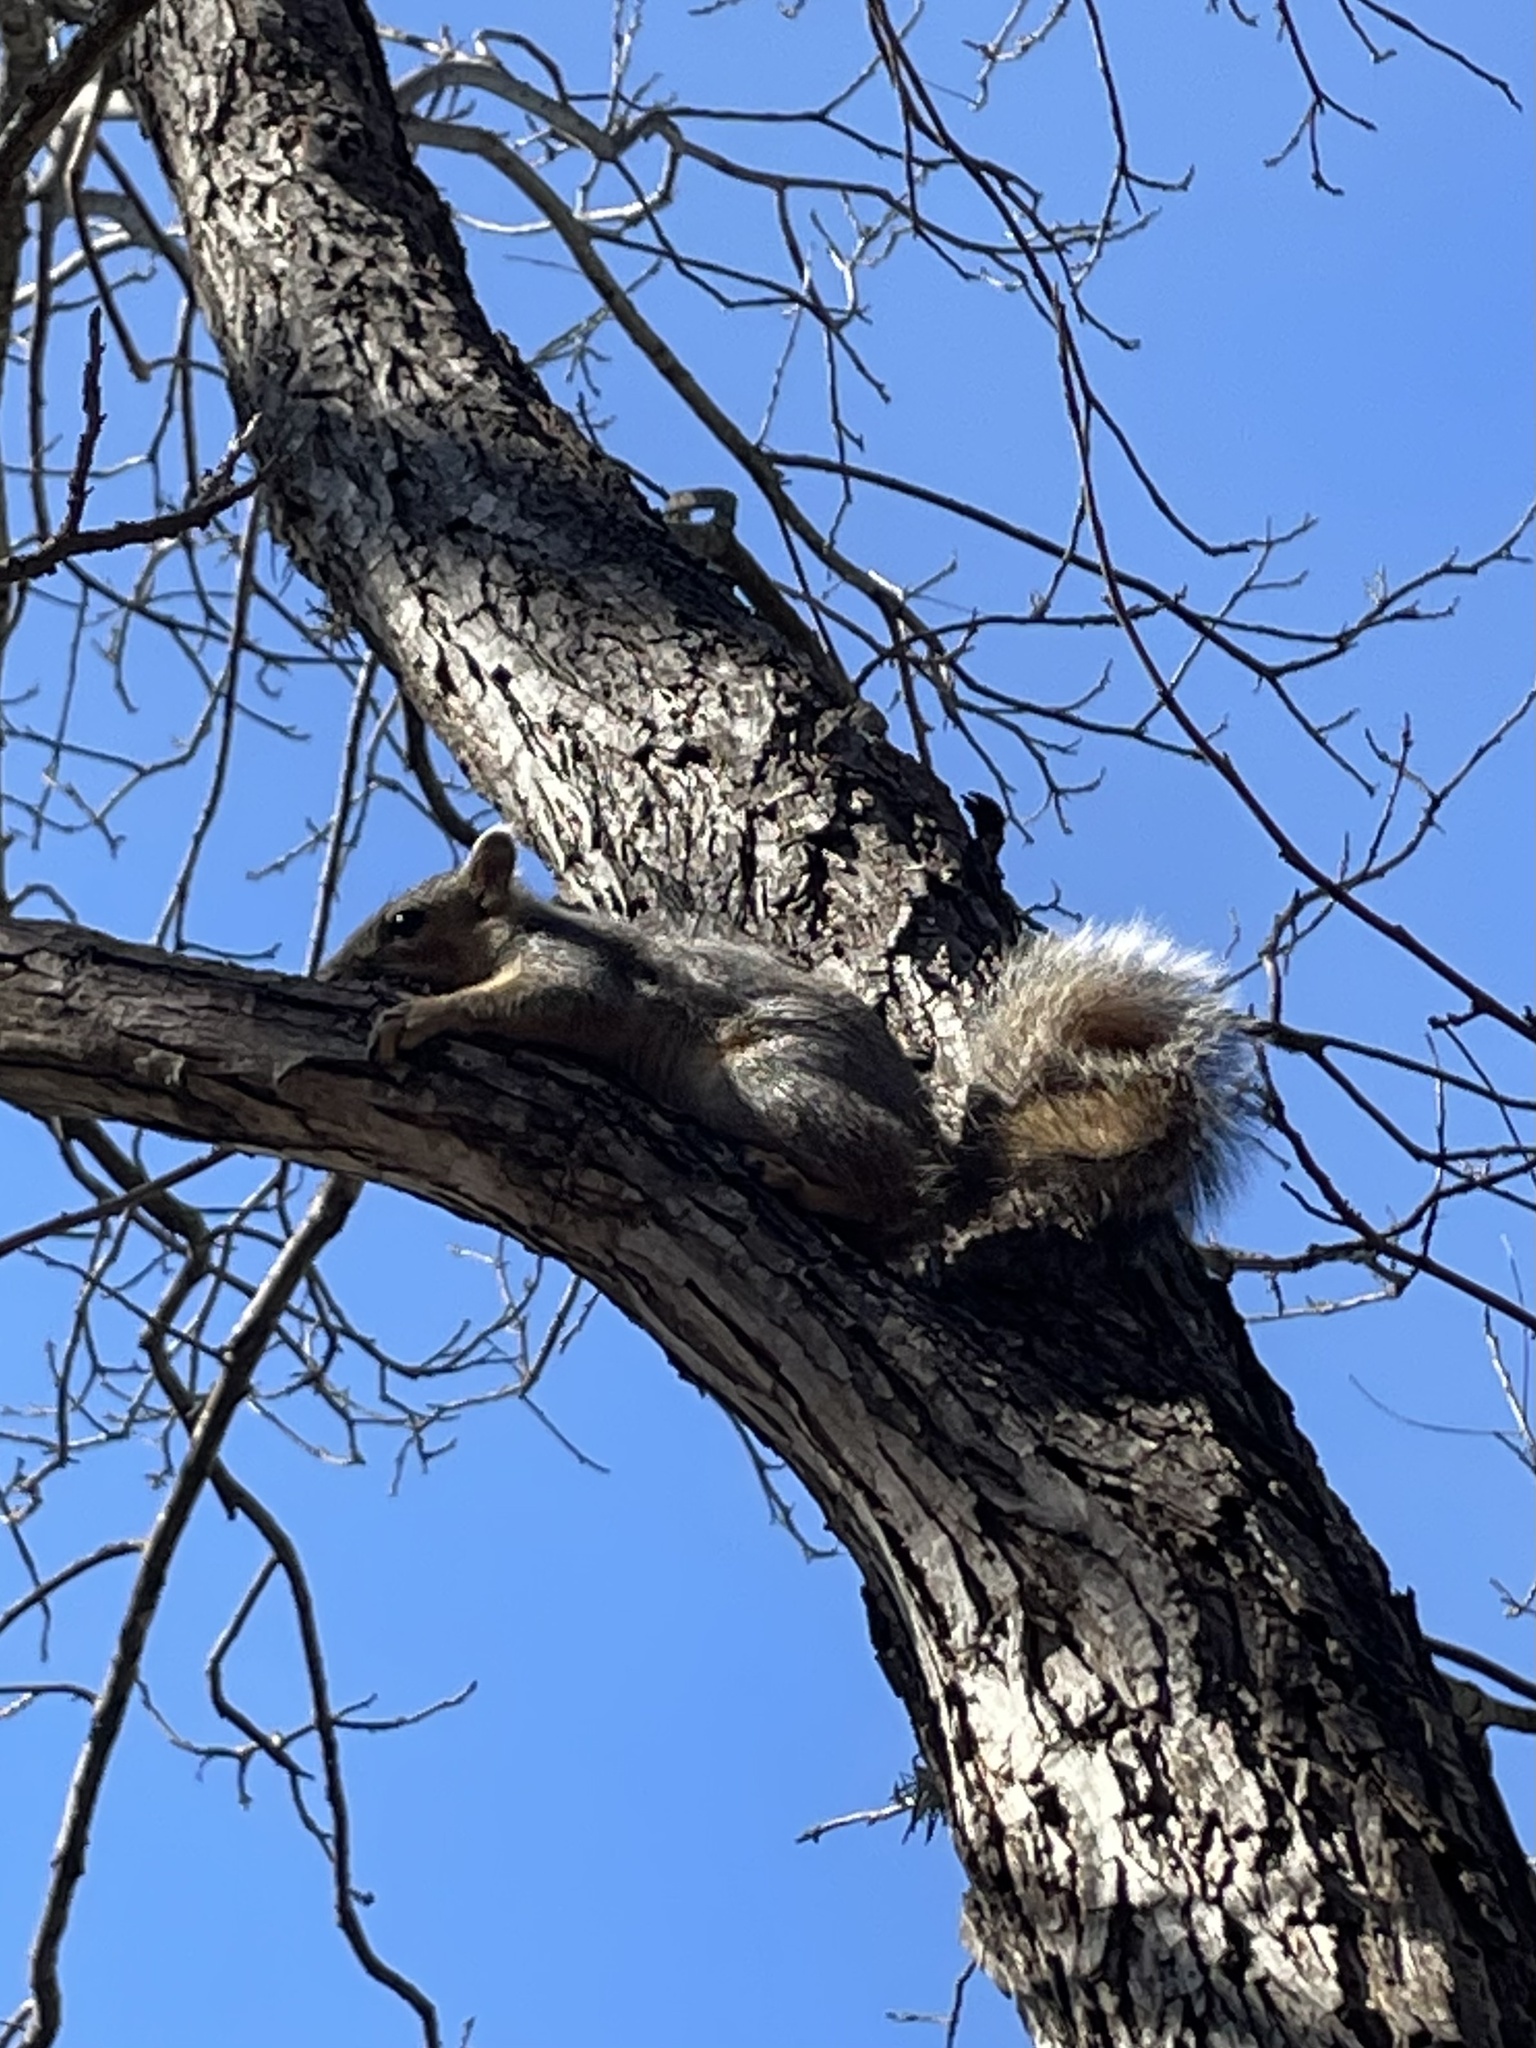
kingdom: Animalia
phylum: Chordata
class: Mammalia
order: Rodentia
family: Sciuridae
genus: Sciurus
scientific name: Sciurus niger
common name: Fox squirrel
